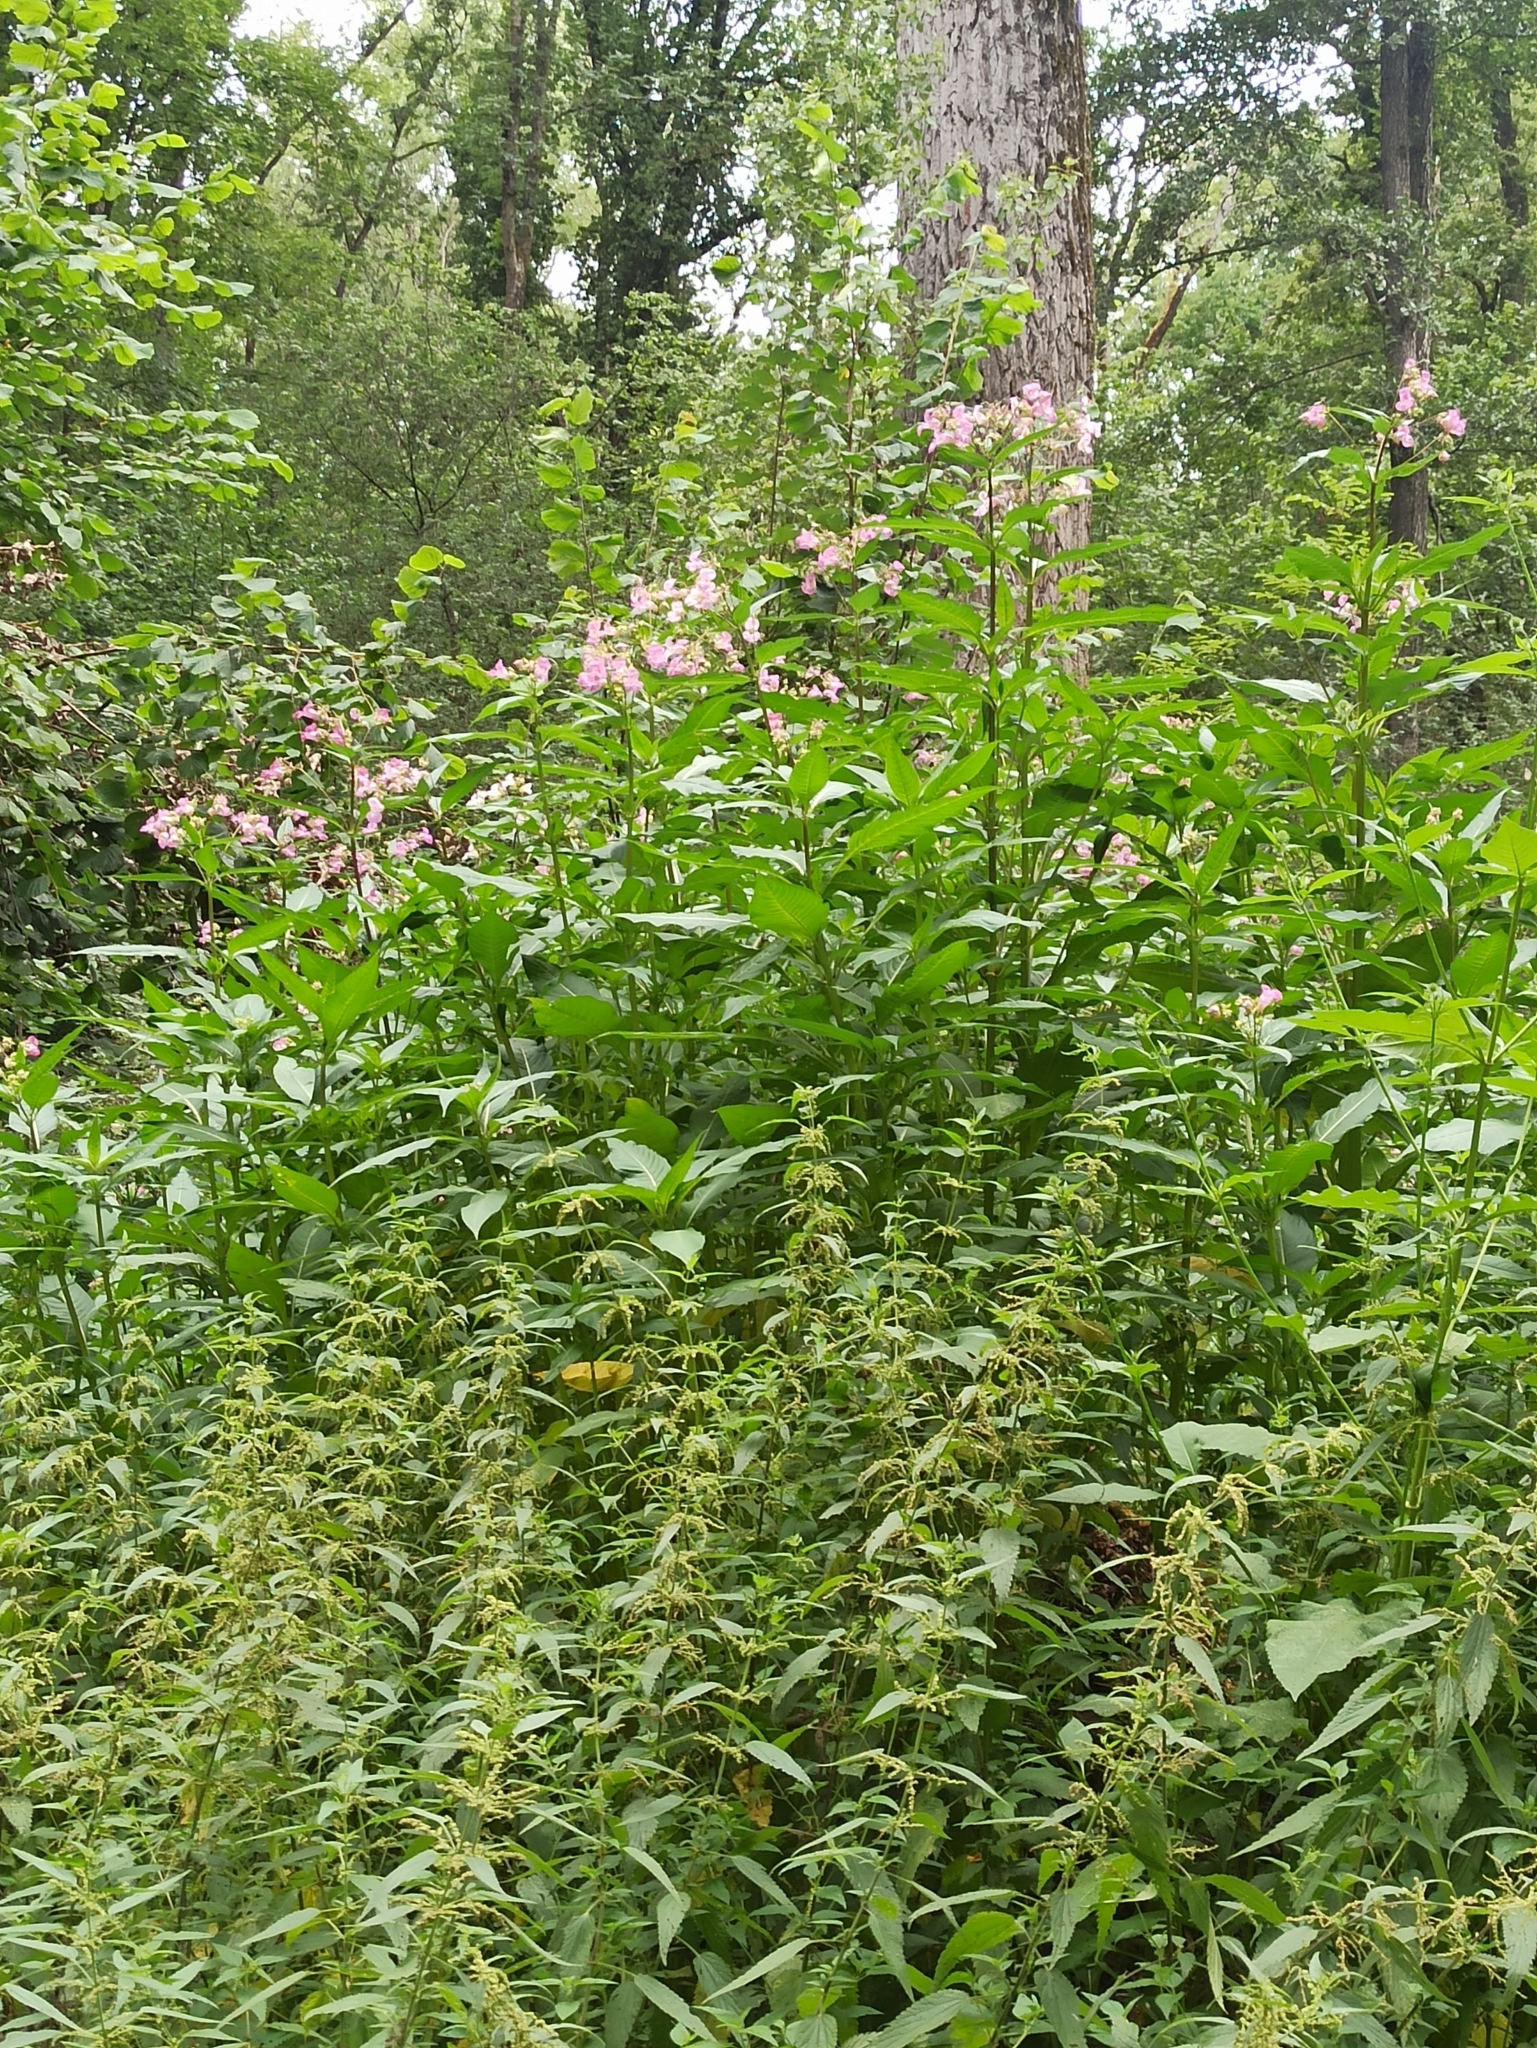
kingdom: Plantae
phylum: Tracheophyta
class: Magnoliopsida
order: Ericales
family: Balsaminaceae
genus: Impatiens
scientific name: Impatiens glandulifera
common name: Himalayan balsam
